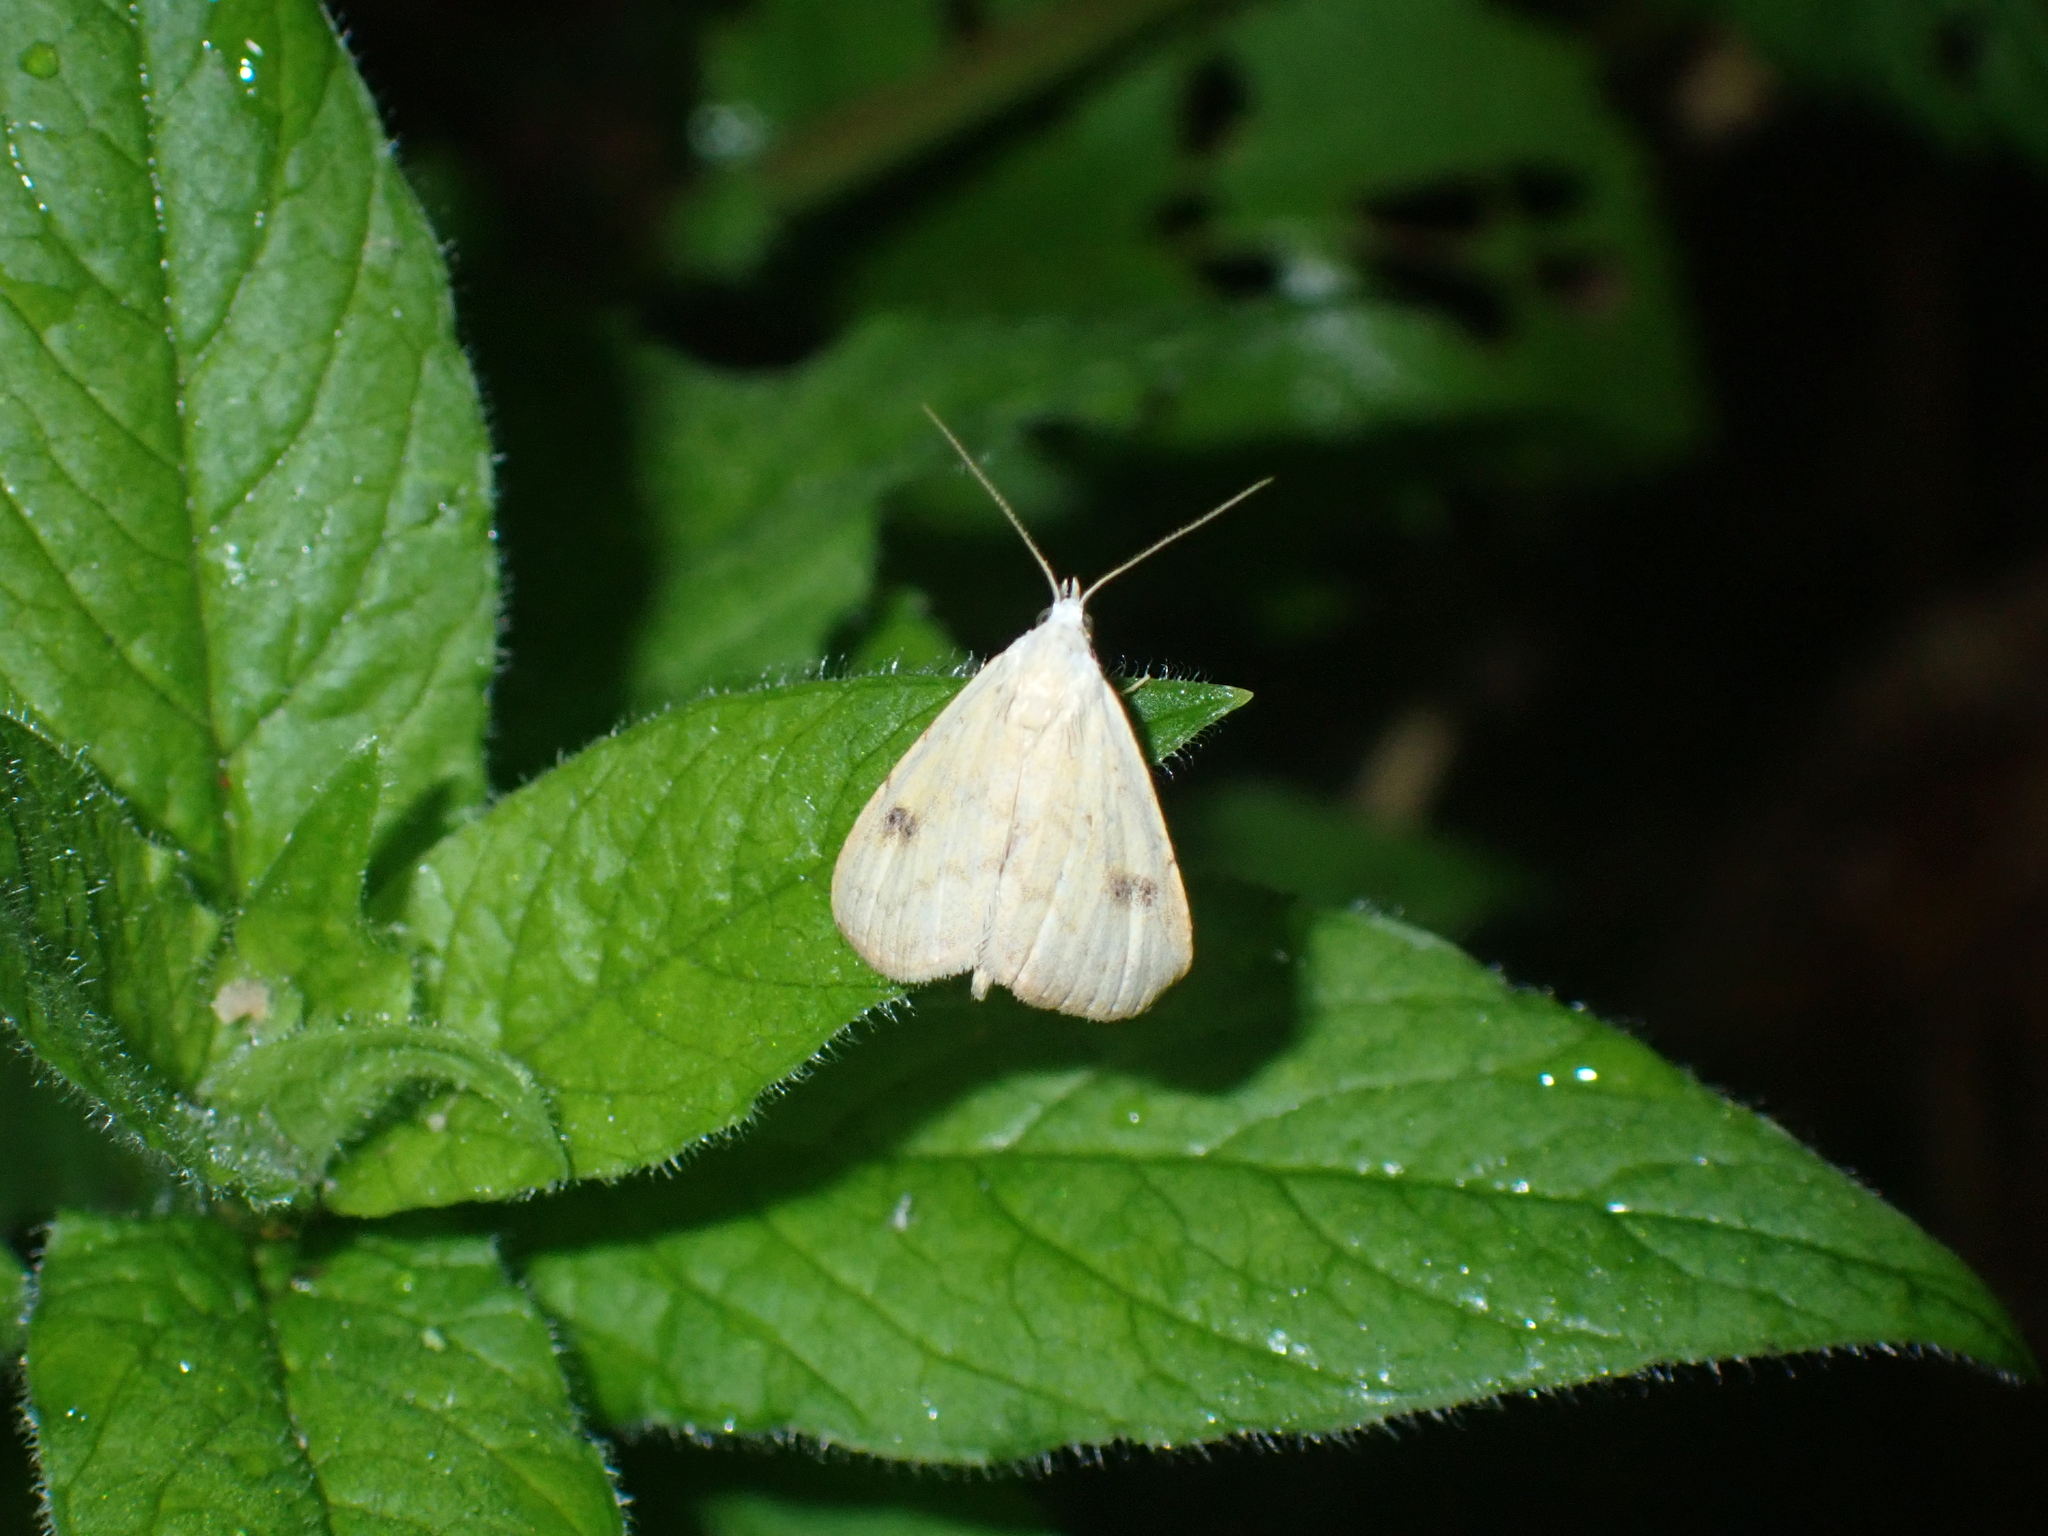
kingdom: Animalia
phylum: Arthropoda
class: Insecta
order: Lepidoptera
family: Erebidae
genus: Rivula
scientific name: Rivula sericealis
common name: Straw dot
